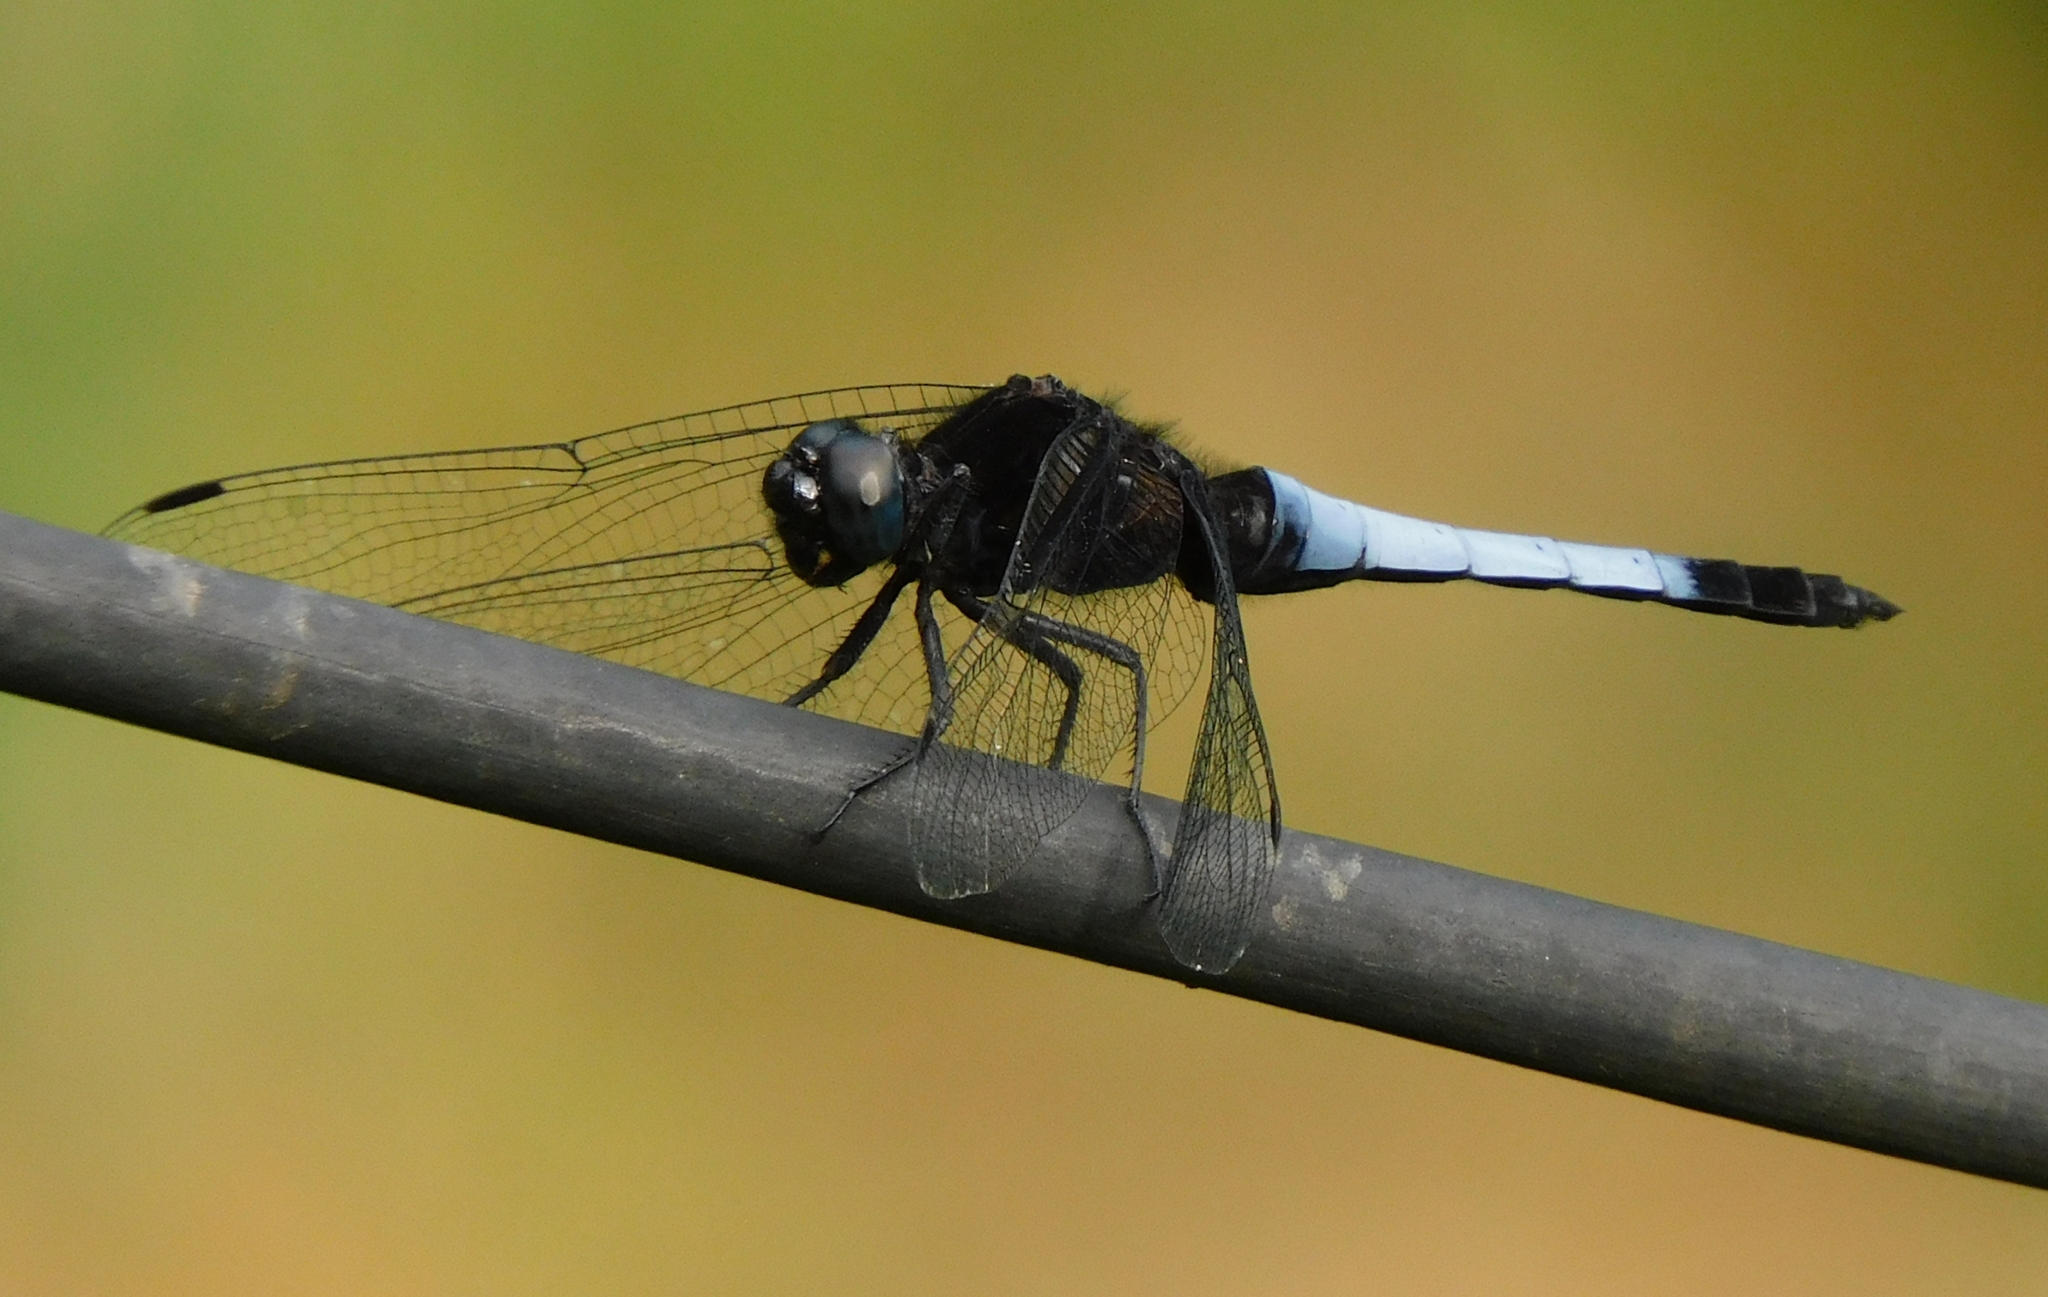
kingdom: Animalia
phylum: Arthropoda
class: Insecta
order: Odonata
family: Libellulidae
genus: Orthetrum
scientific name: Orthetrum triangulare
